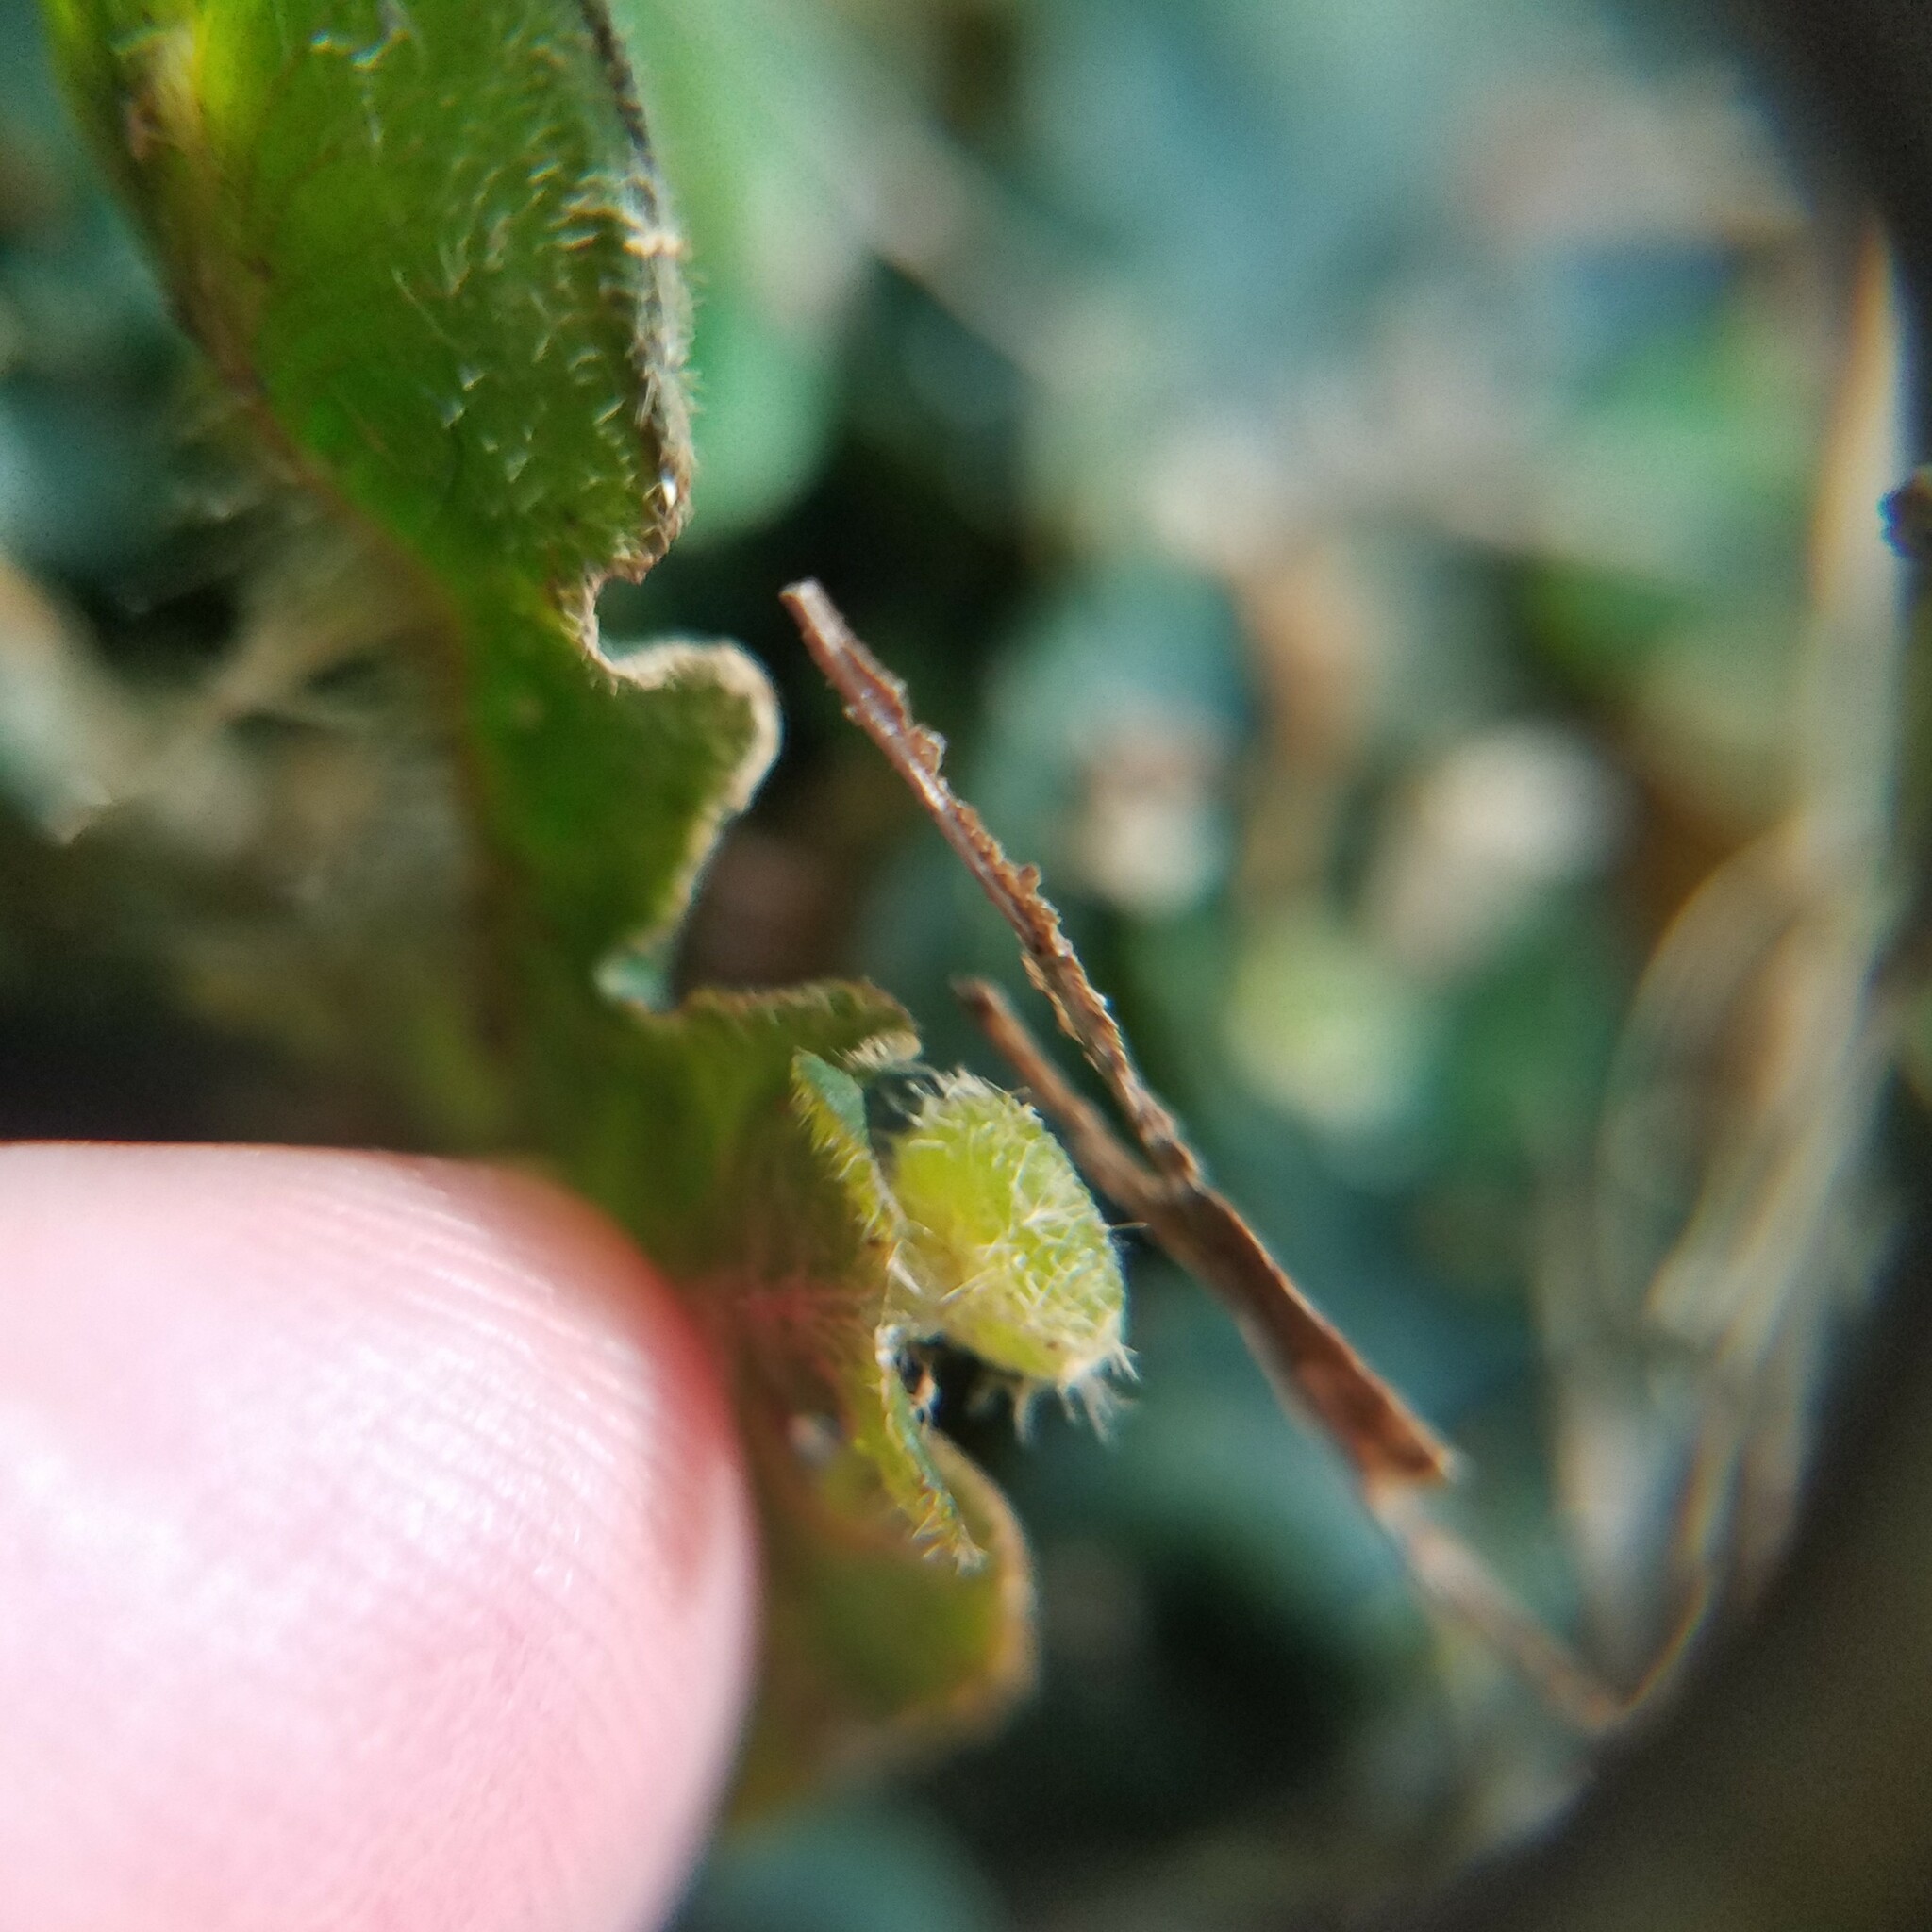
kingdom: Plantae
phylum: Marchantiophyta
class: Marchantiopsida
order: Marchantiales
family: Dumortieraceae
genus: Dumortiera
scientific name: Dumortiera hirsuta
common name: Dumortier's liverwort
